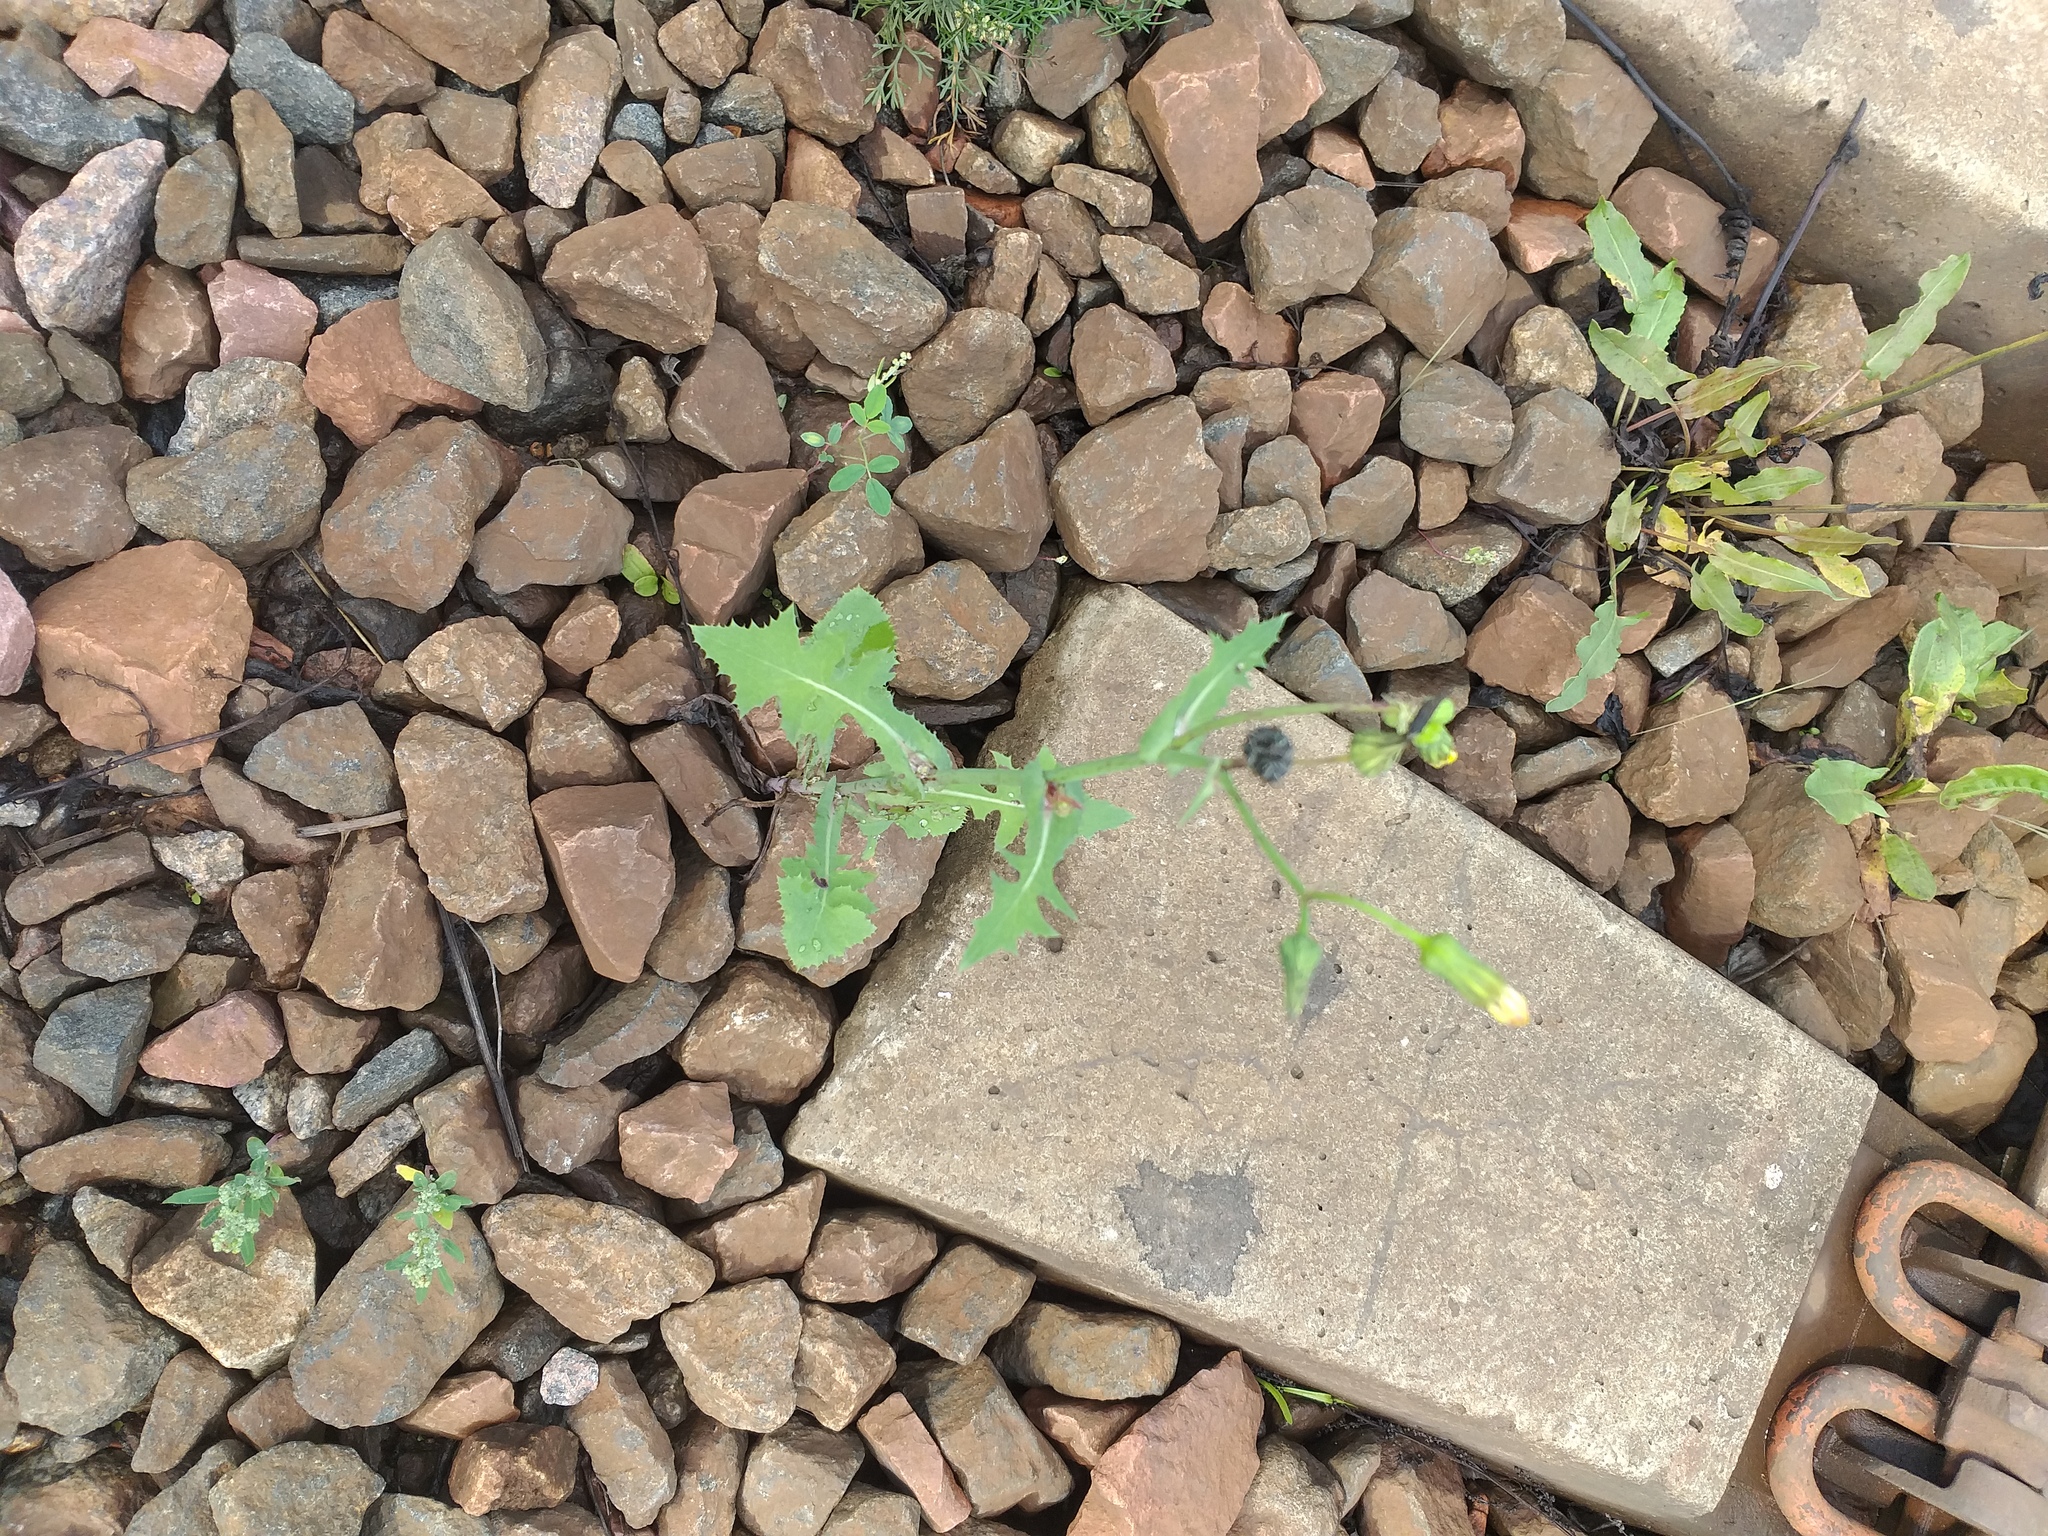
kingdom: Plantae
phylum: Tracheophyta
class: Magnoliopsida
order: Asterales
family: Asteraceae
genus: Sonchus
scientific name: Sonchus oleraceus
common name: Common sowthistle
